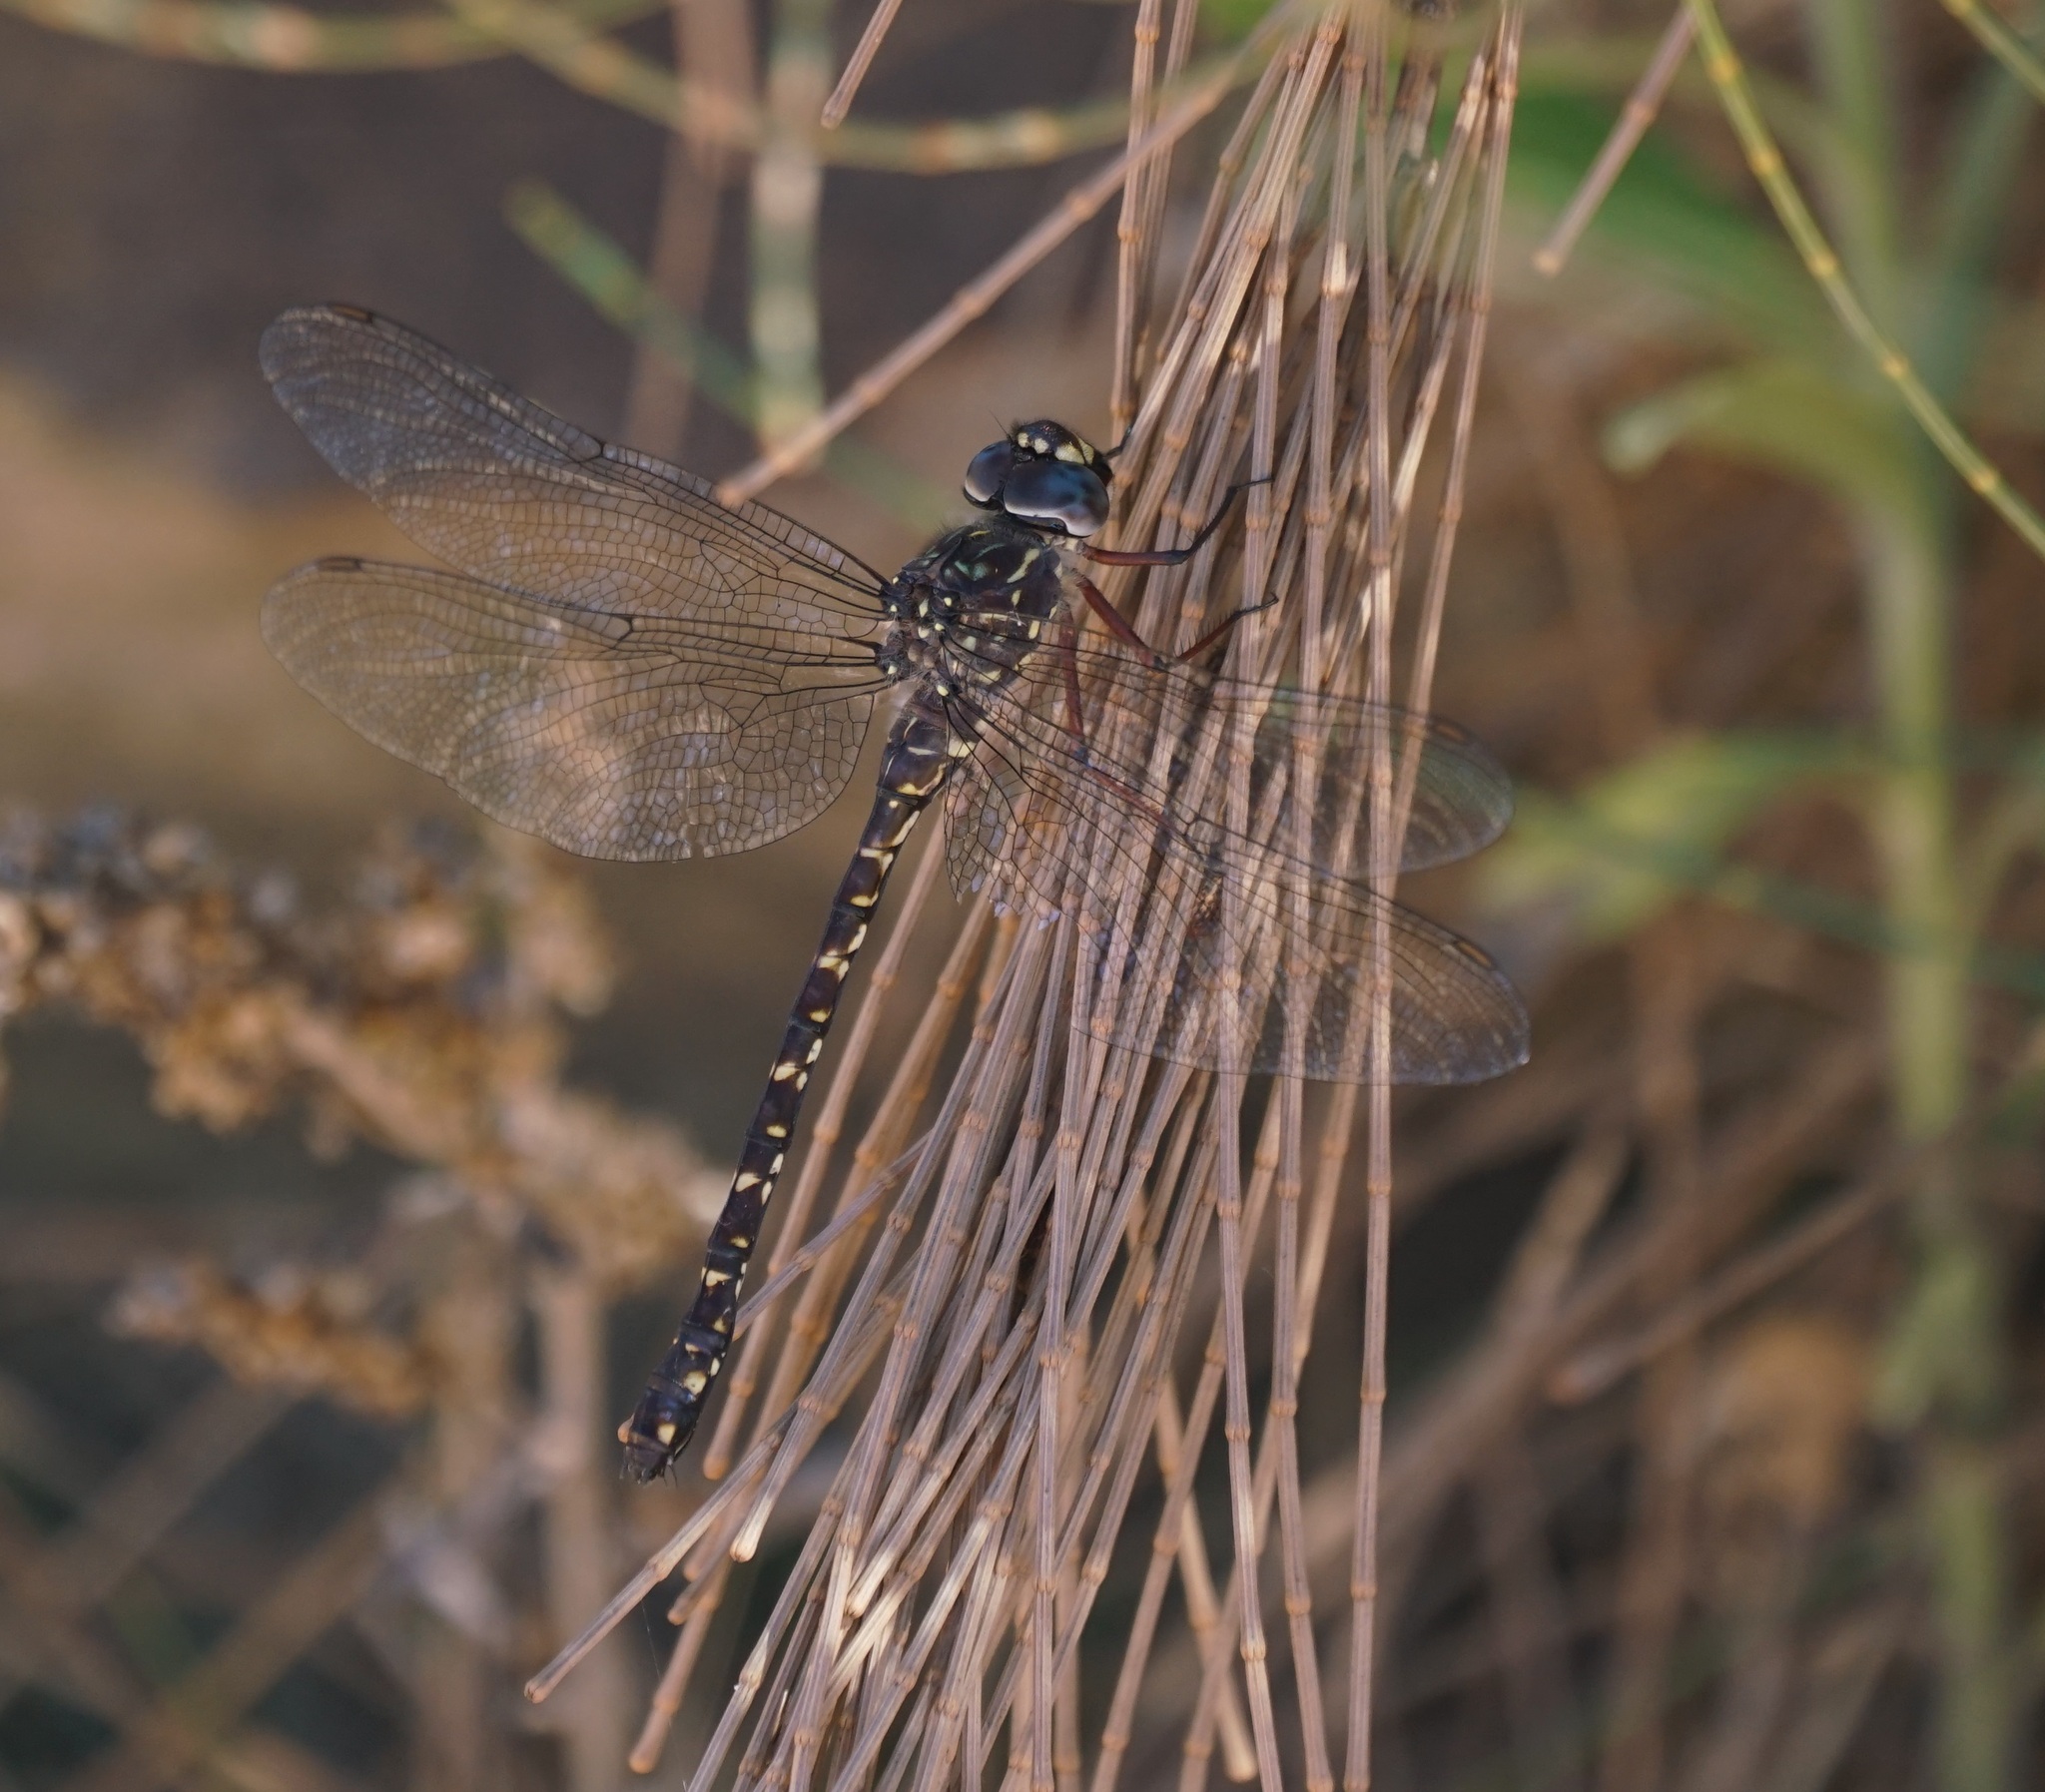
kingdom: Animalia
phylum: Arthropoda
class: Insecta
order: Odonata
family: Aeshnidae
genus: Austroaeschna
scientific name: Austroaeschna obscura
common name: Sydney mountain darner
